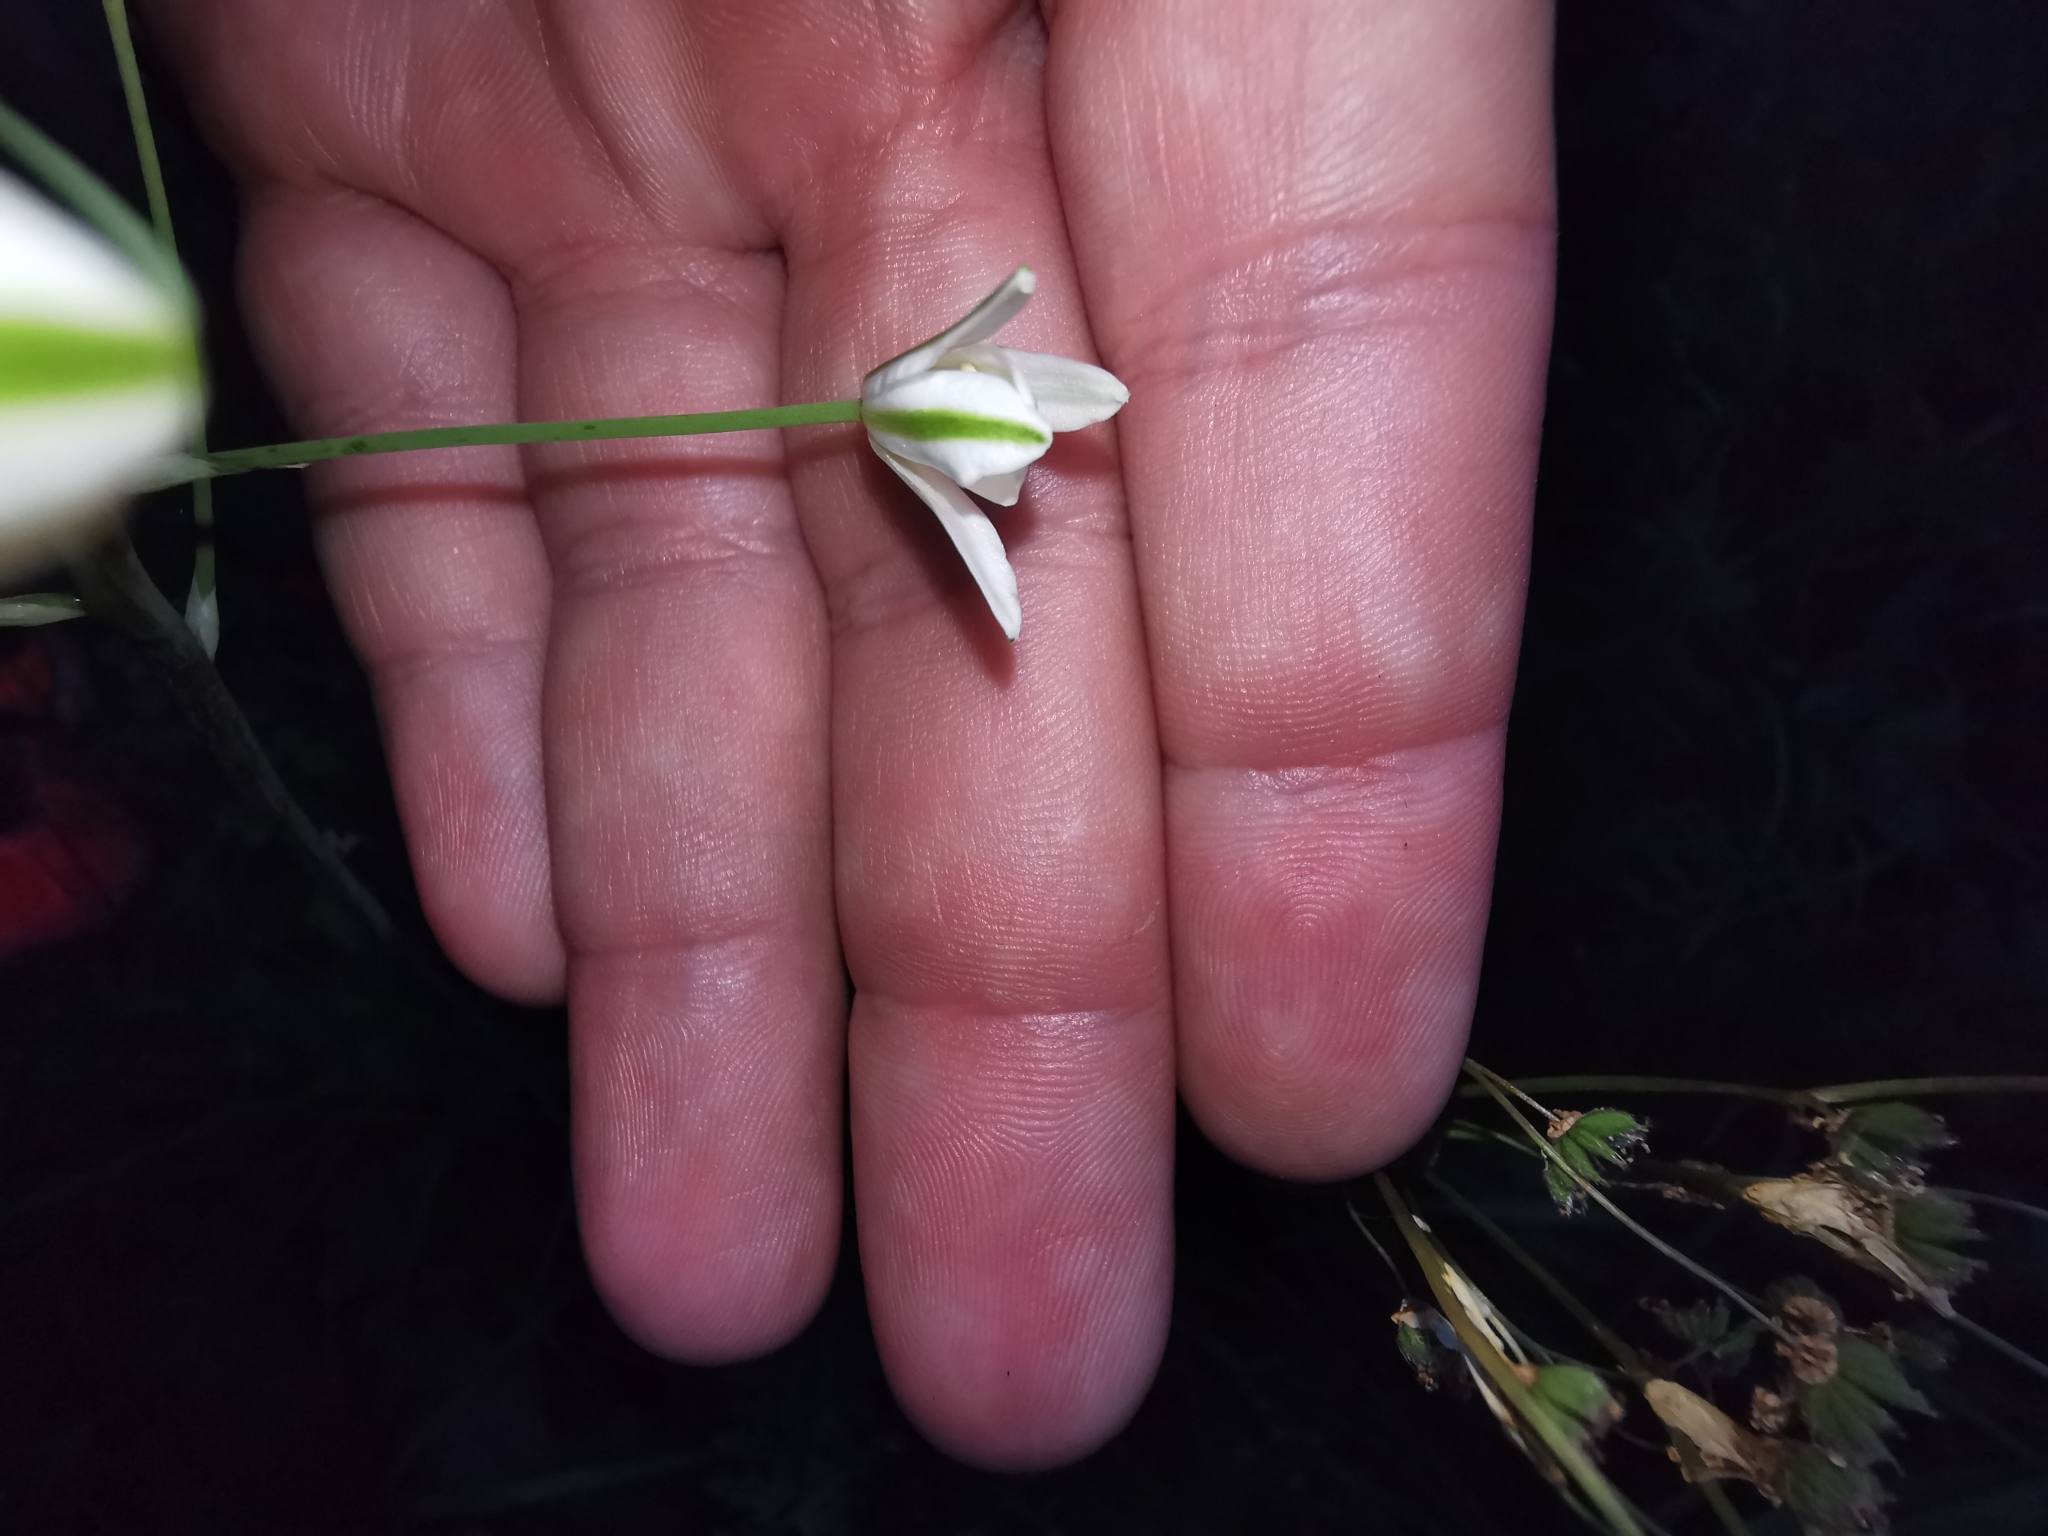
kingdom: Plantae
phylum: Tracheophyta
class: Liliopsida
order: Asparagales
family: Asparagaceae
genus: Ornithogalum
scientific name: Ornithogalum pyramidale
